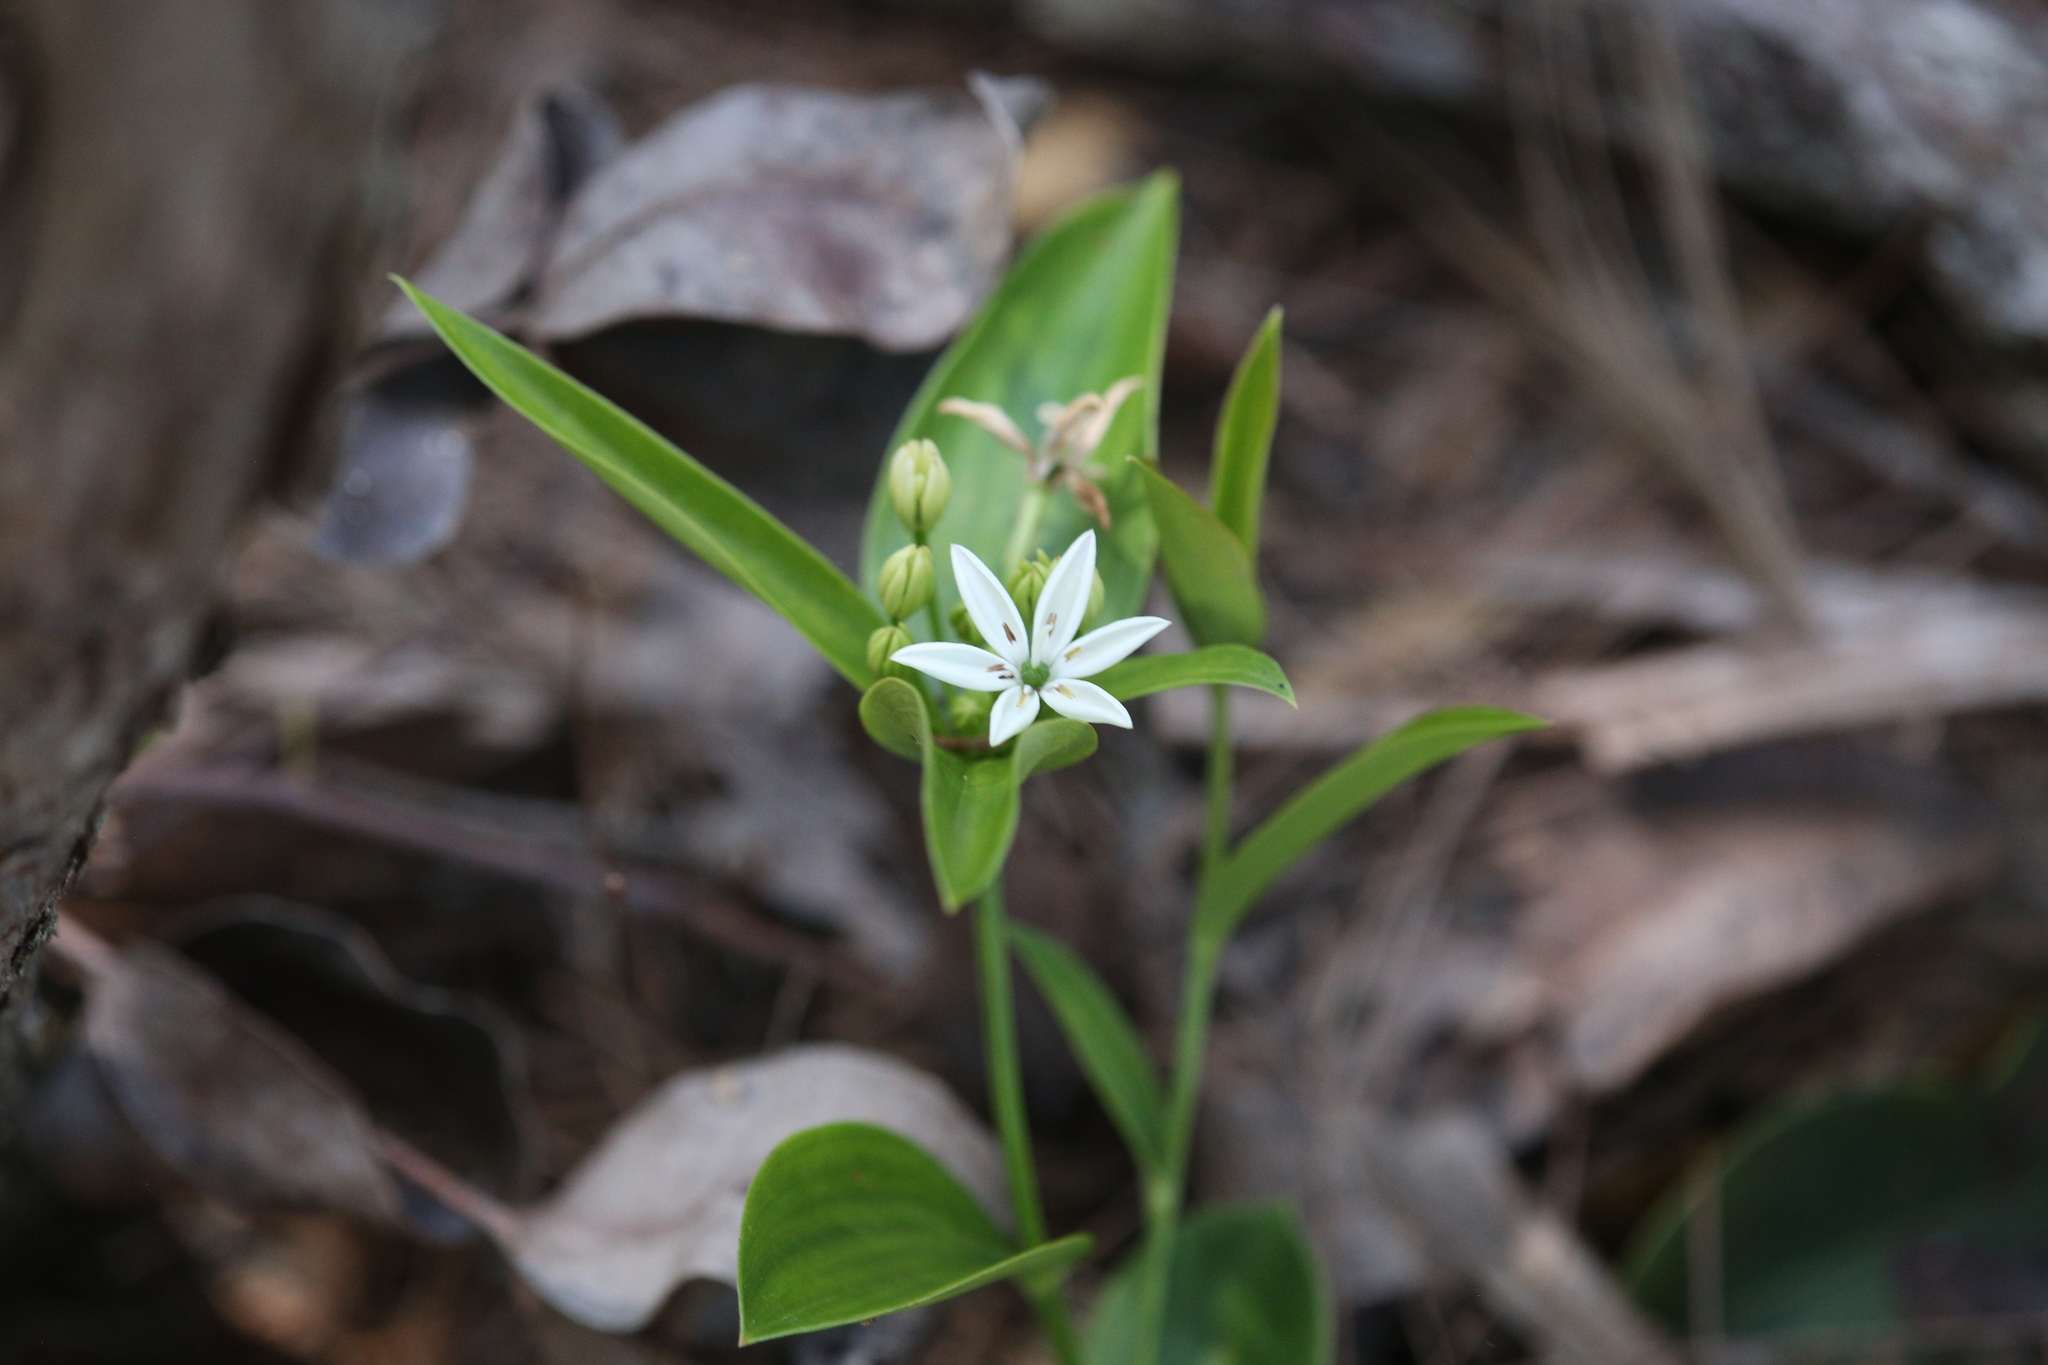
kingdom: Plantae
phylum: Tracheophyta
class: Liliopsida
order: Liliales
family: Colchicaceae
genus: Schelhammera
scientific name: Schelhammera multiflora
